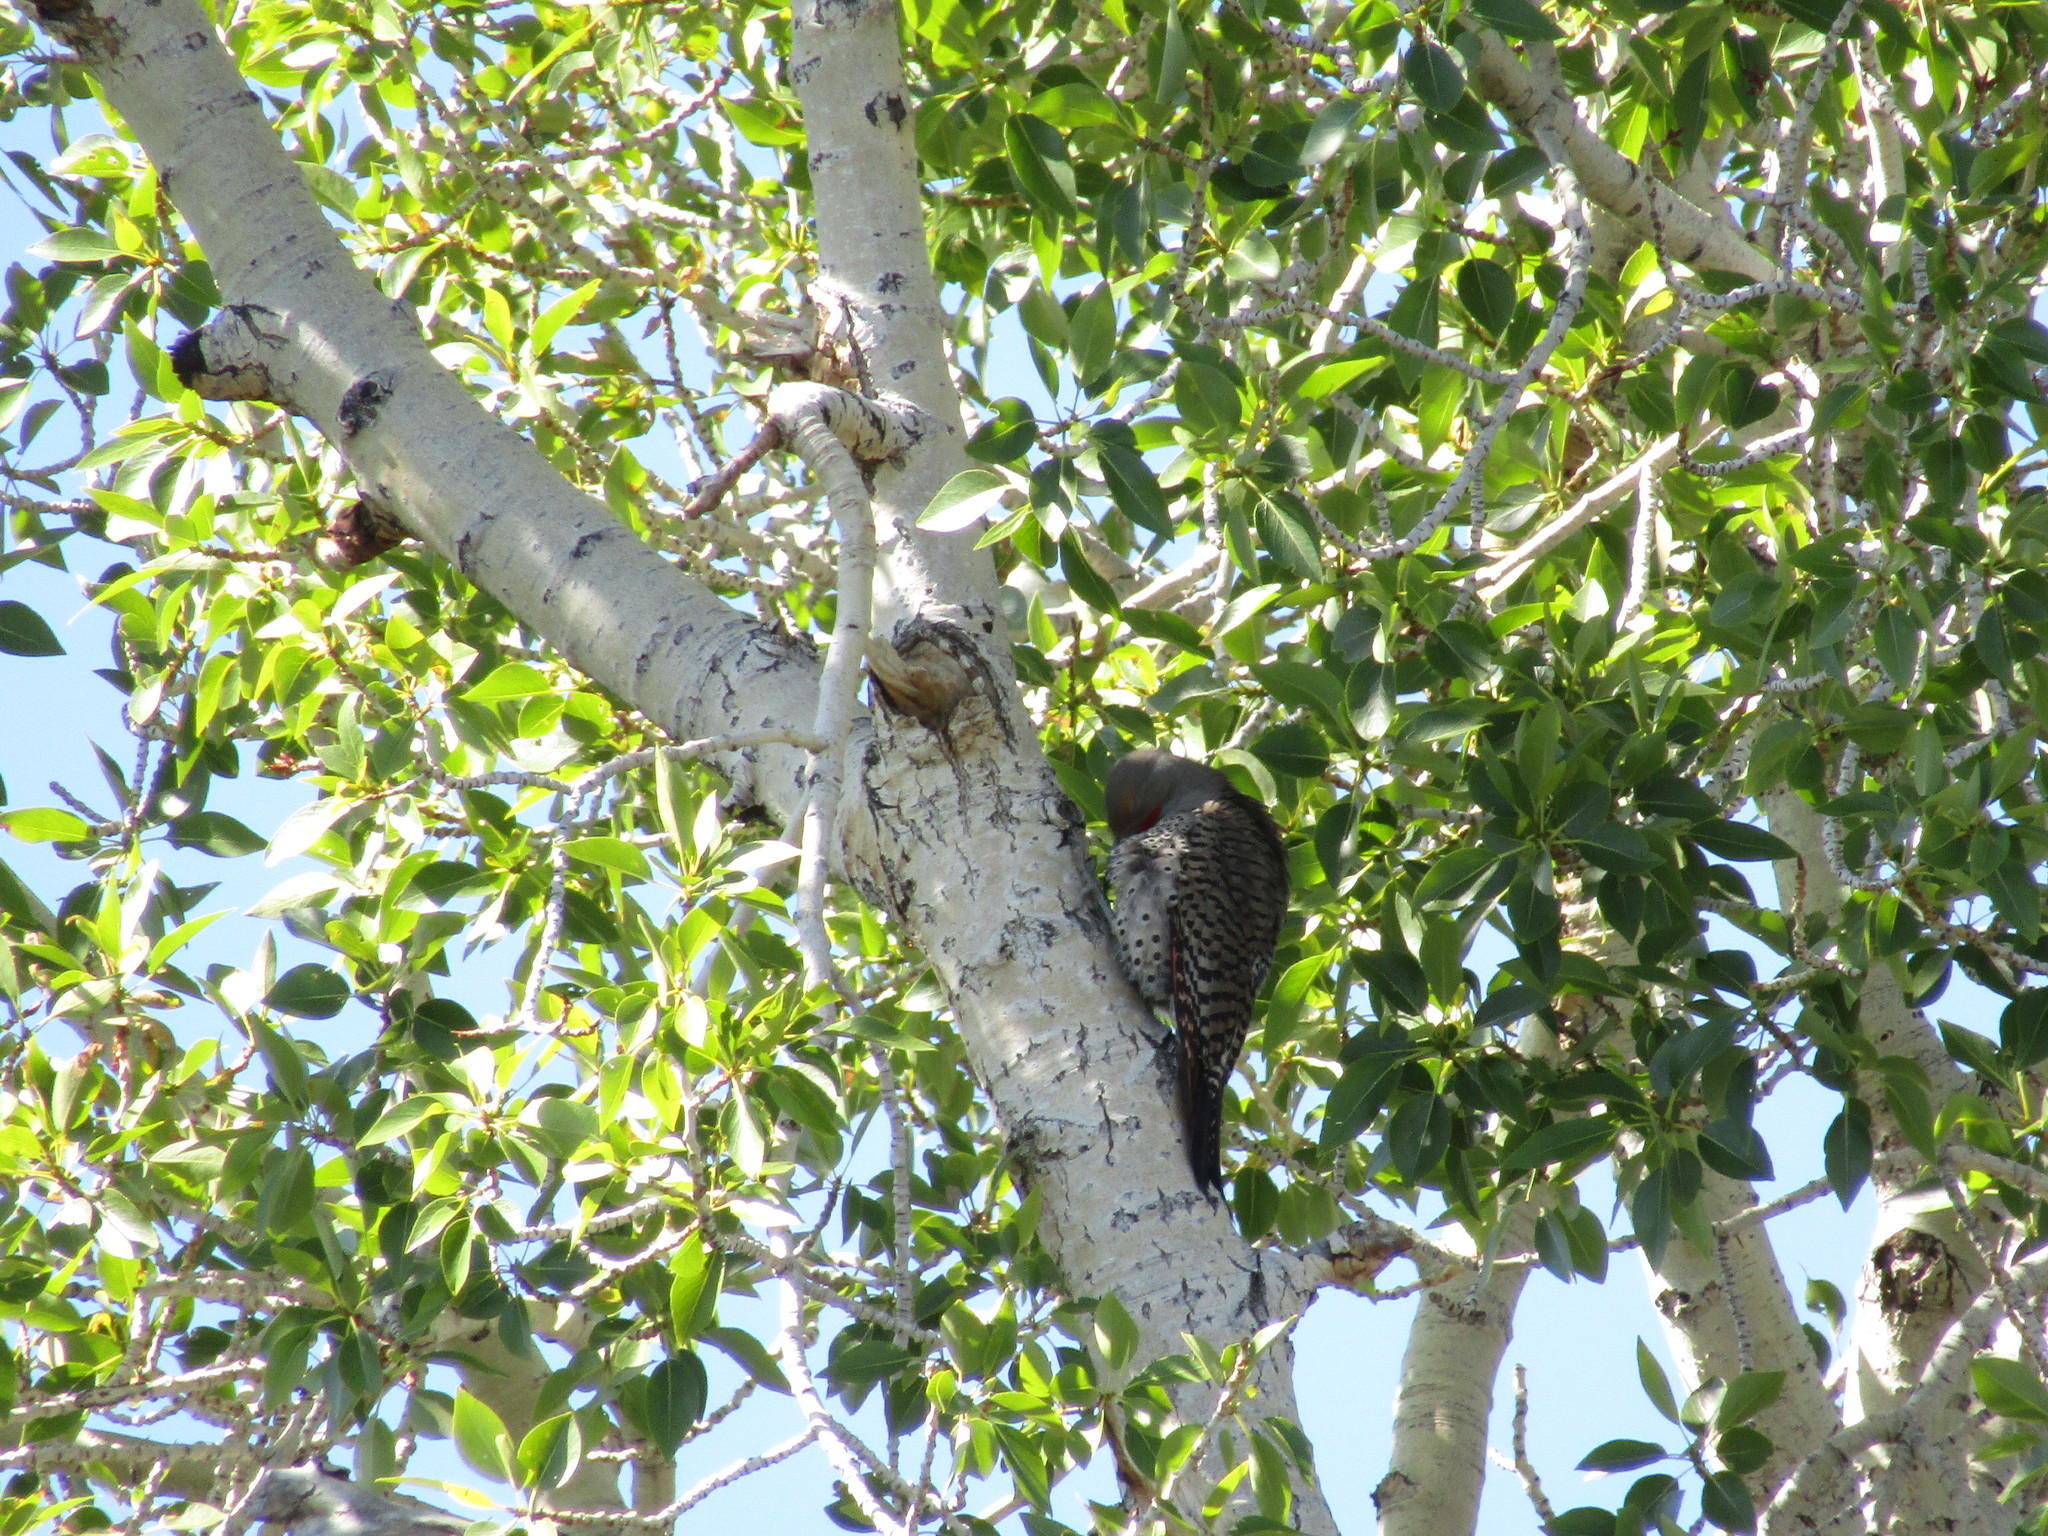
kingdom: Animalia
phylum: Chordata
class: Aves
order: Piciformes
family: Picidae
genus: Colaptes
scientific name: Colaptes auratus
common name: Northern flicker
